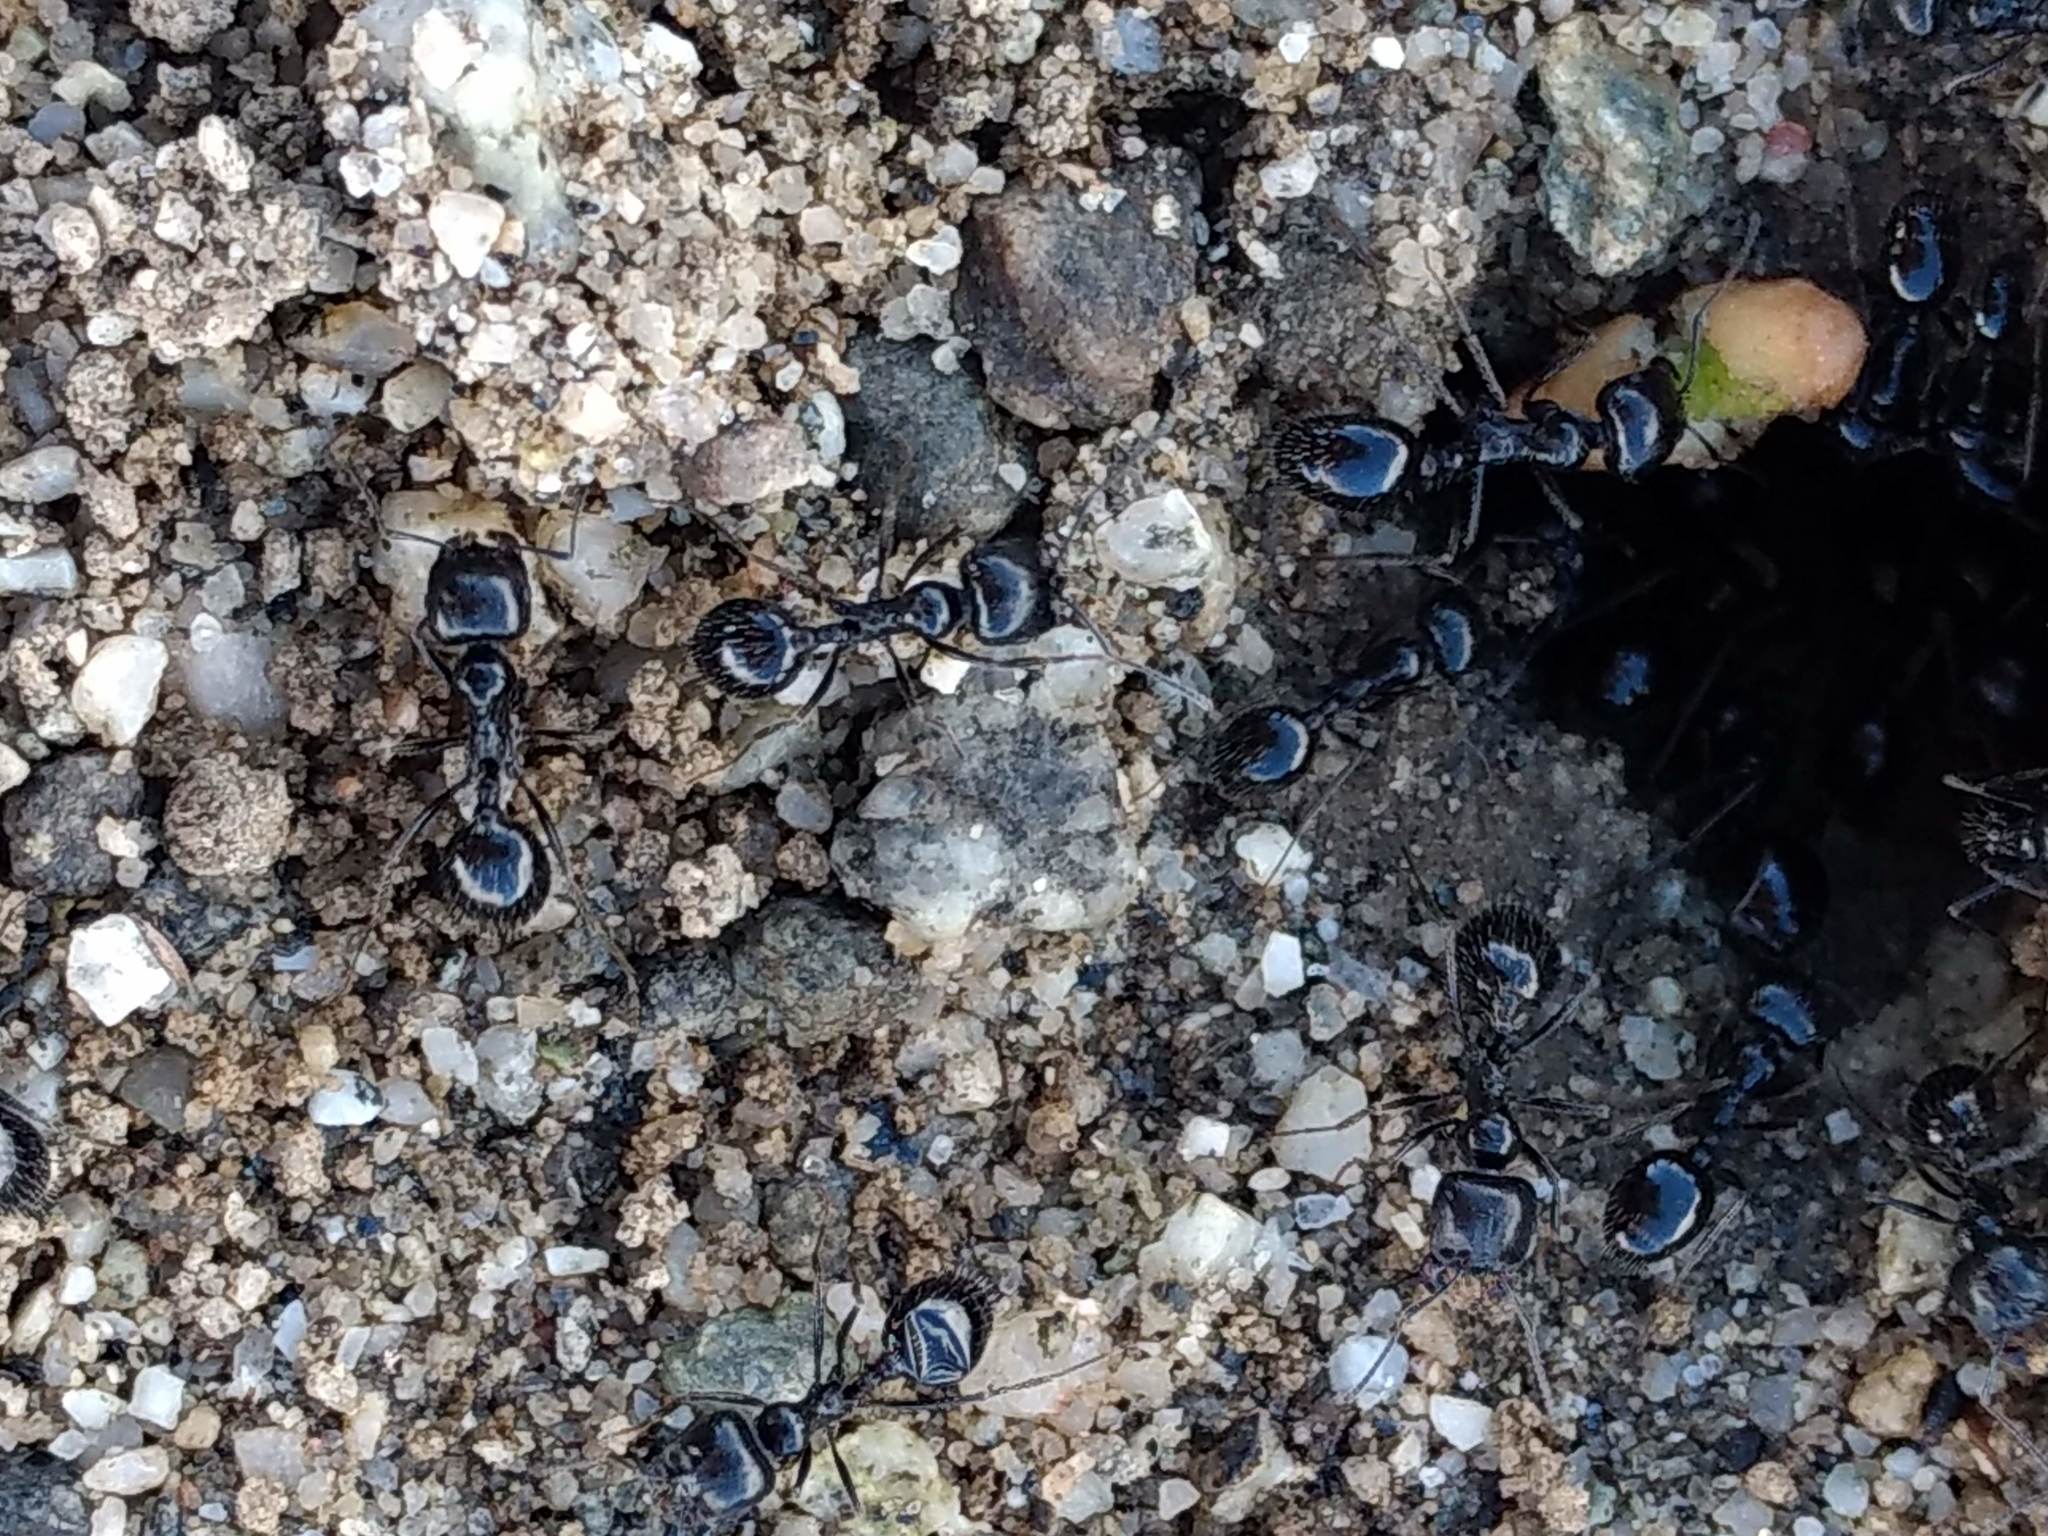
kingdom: Animalia
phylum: Arthropoda
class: Insecta
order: Hymenoptera
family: Formicidae
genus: Messor
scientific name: Messor pergandei
